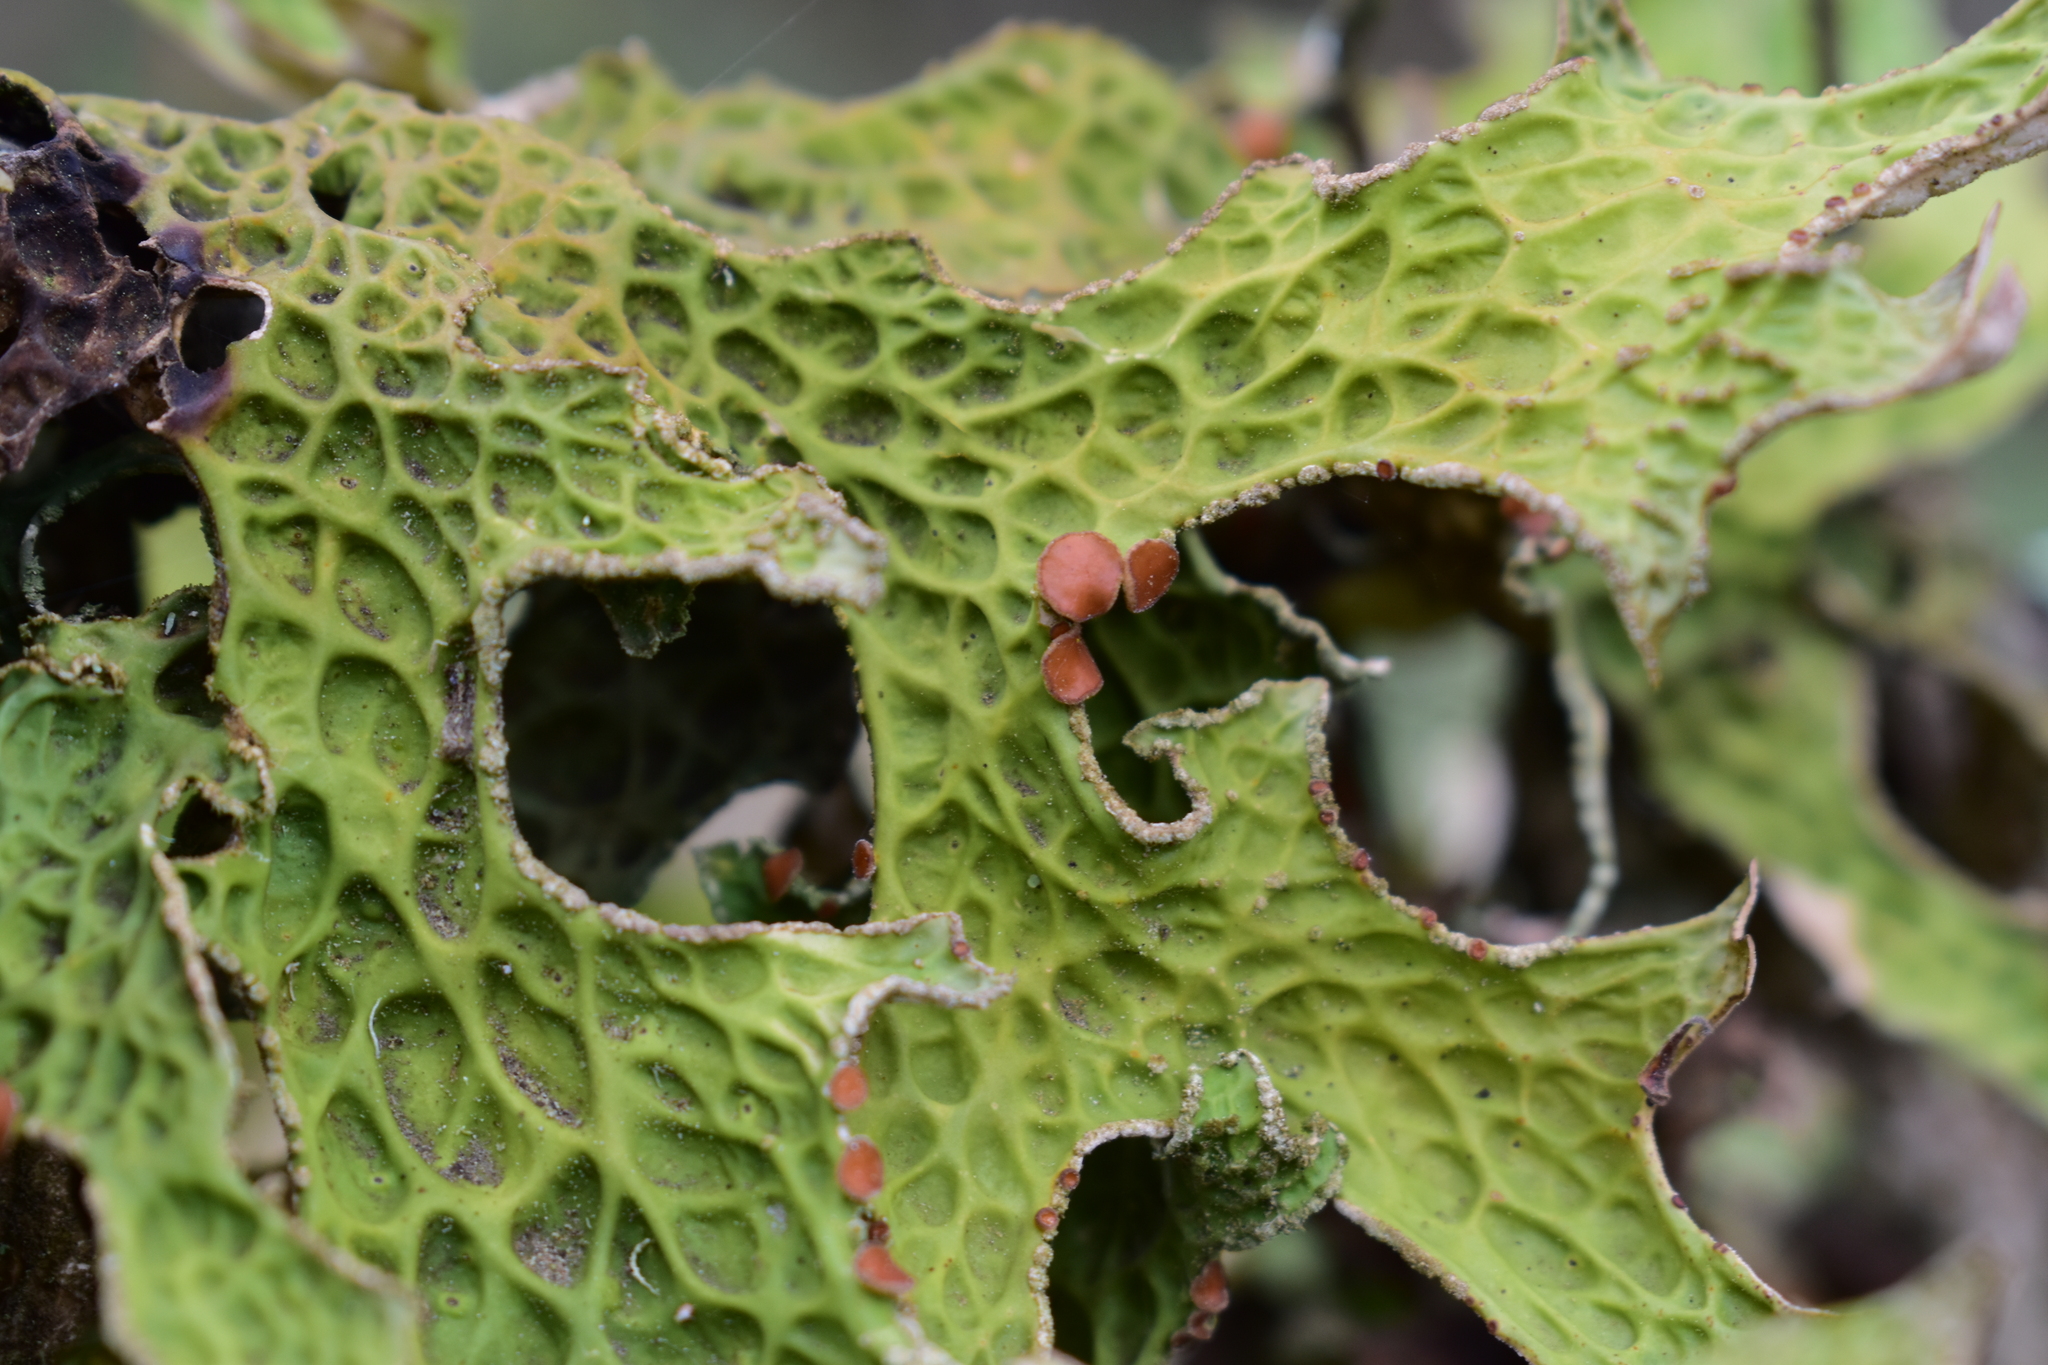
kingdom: Fungi
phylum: Ascomycota
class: Lecanoromycetes
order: Peltigerales
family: Lobariaceae
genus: Lobaria
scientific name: Lobaria pulmonaria
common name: Lungwort
